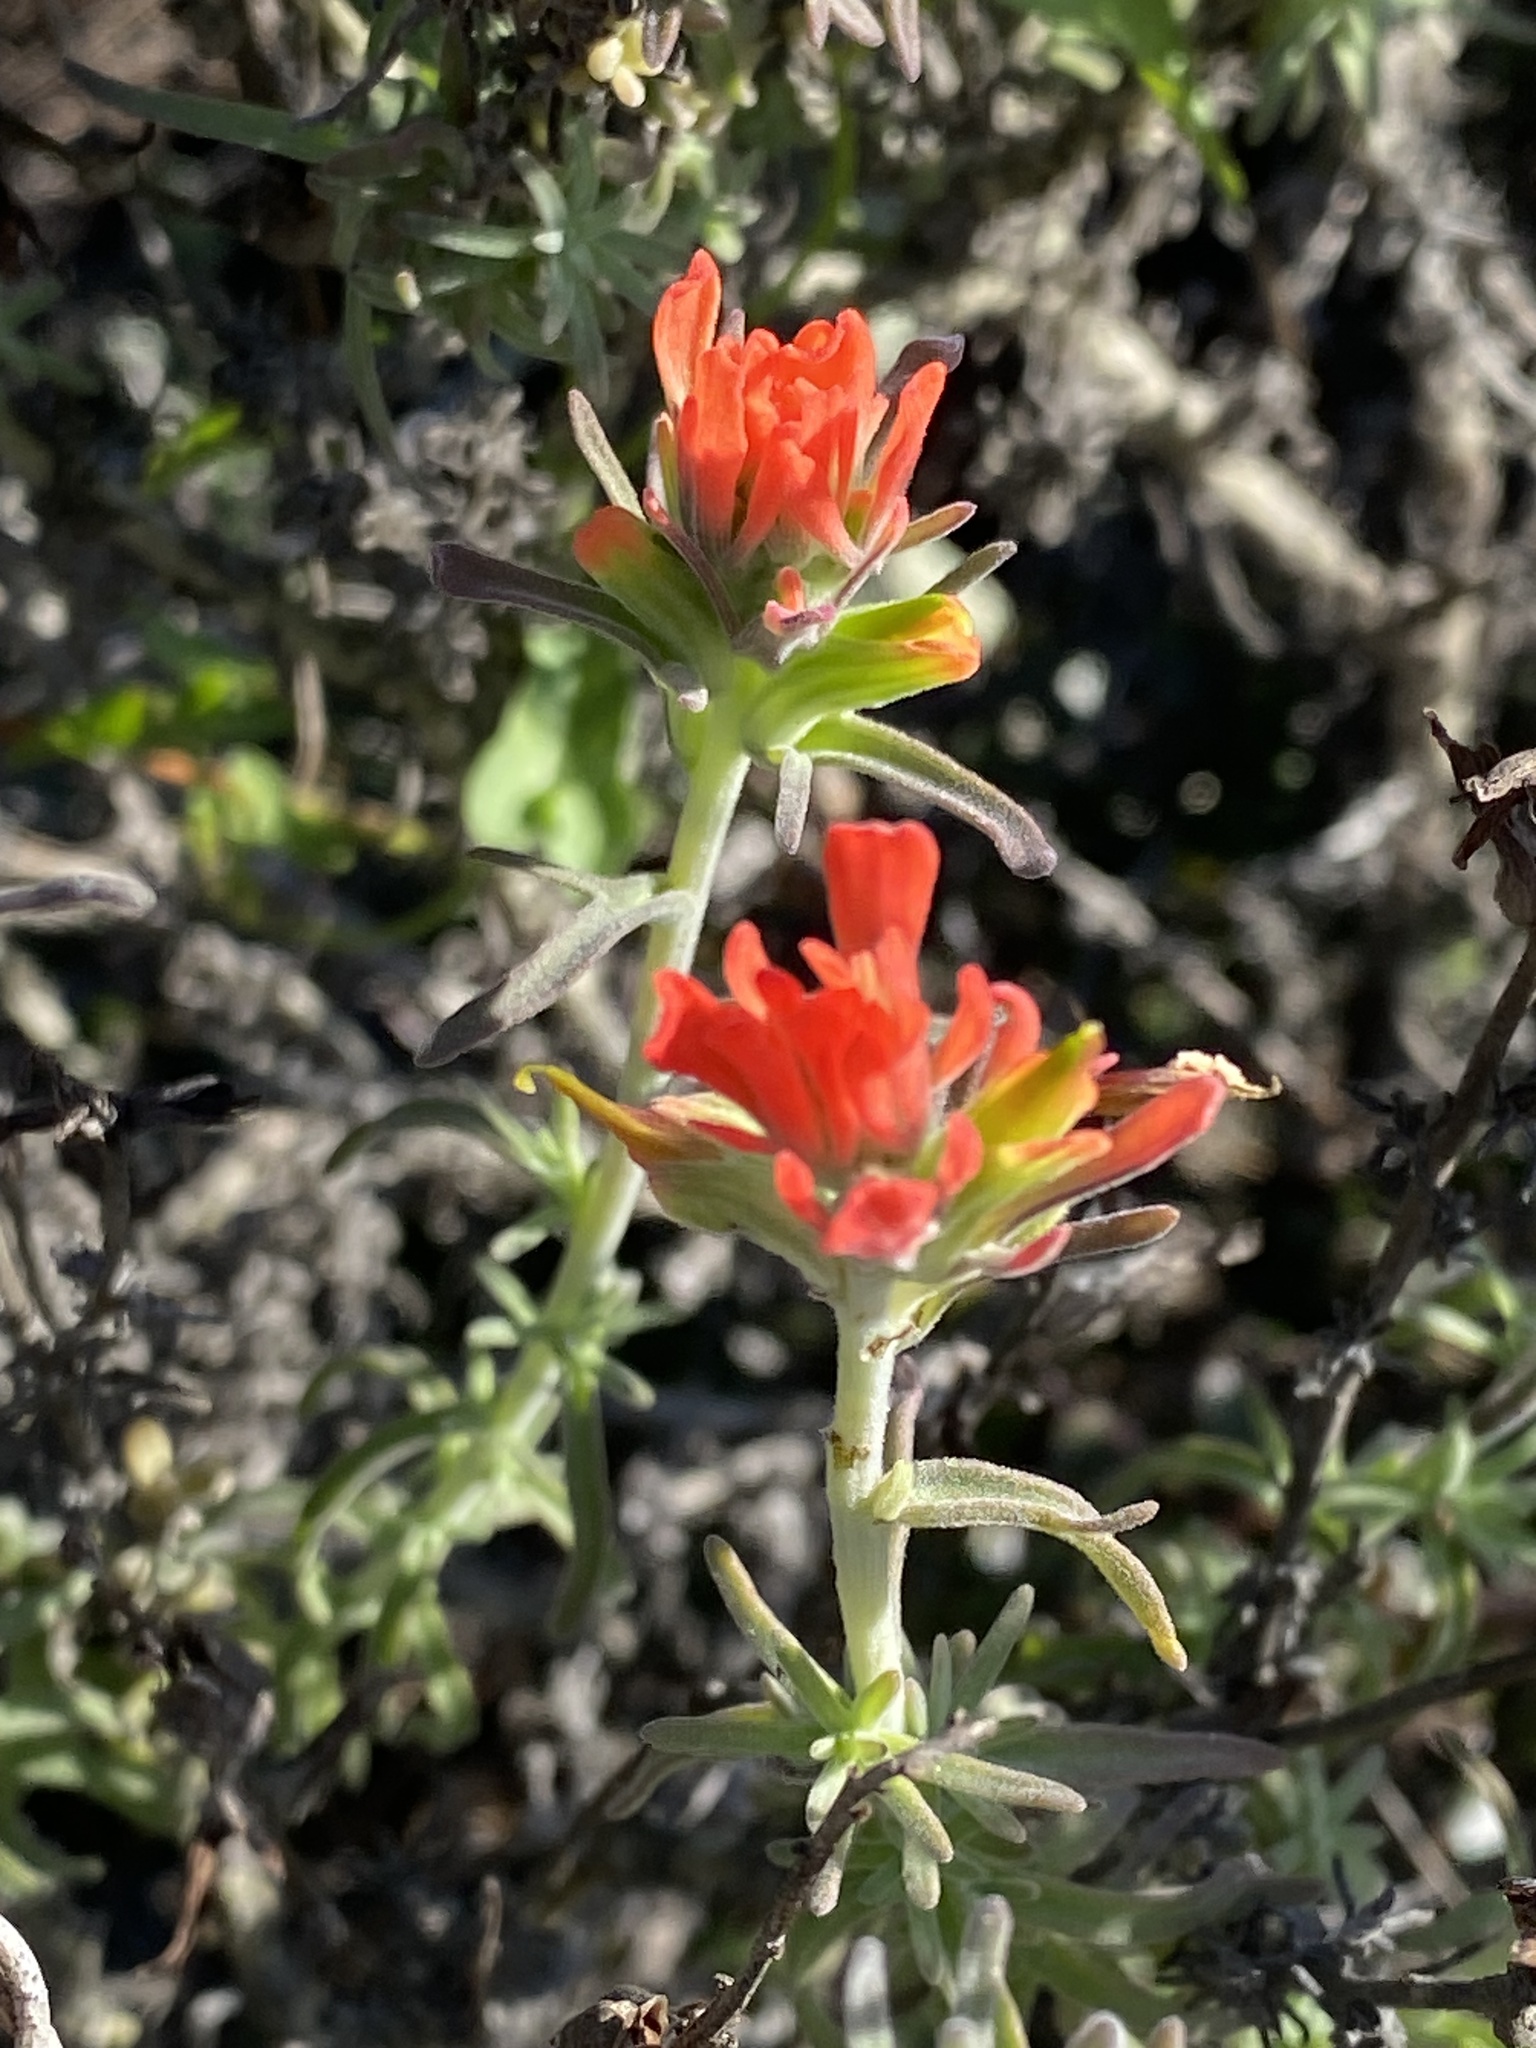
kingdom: Plantae
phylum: Tracheophyta
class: Magnoliopsida
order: Lamiales
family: Orobanchaceae
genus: Castilleja
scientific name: Castilleja foliolosa
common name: Woolly indian paintbrush
